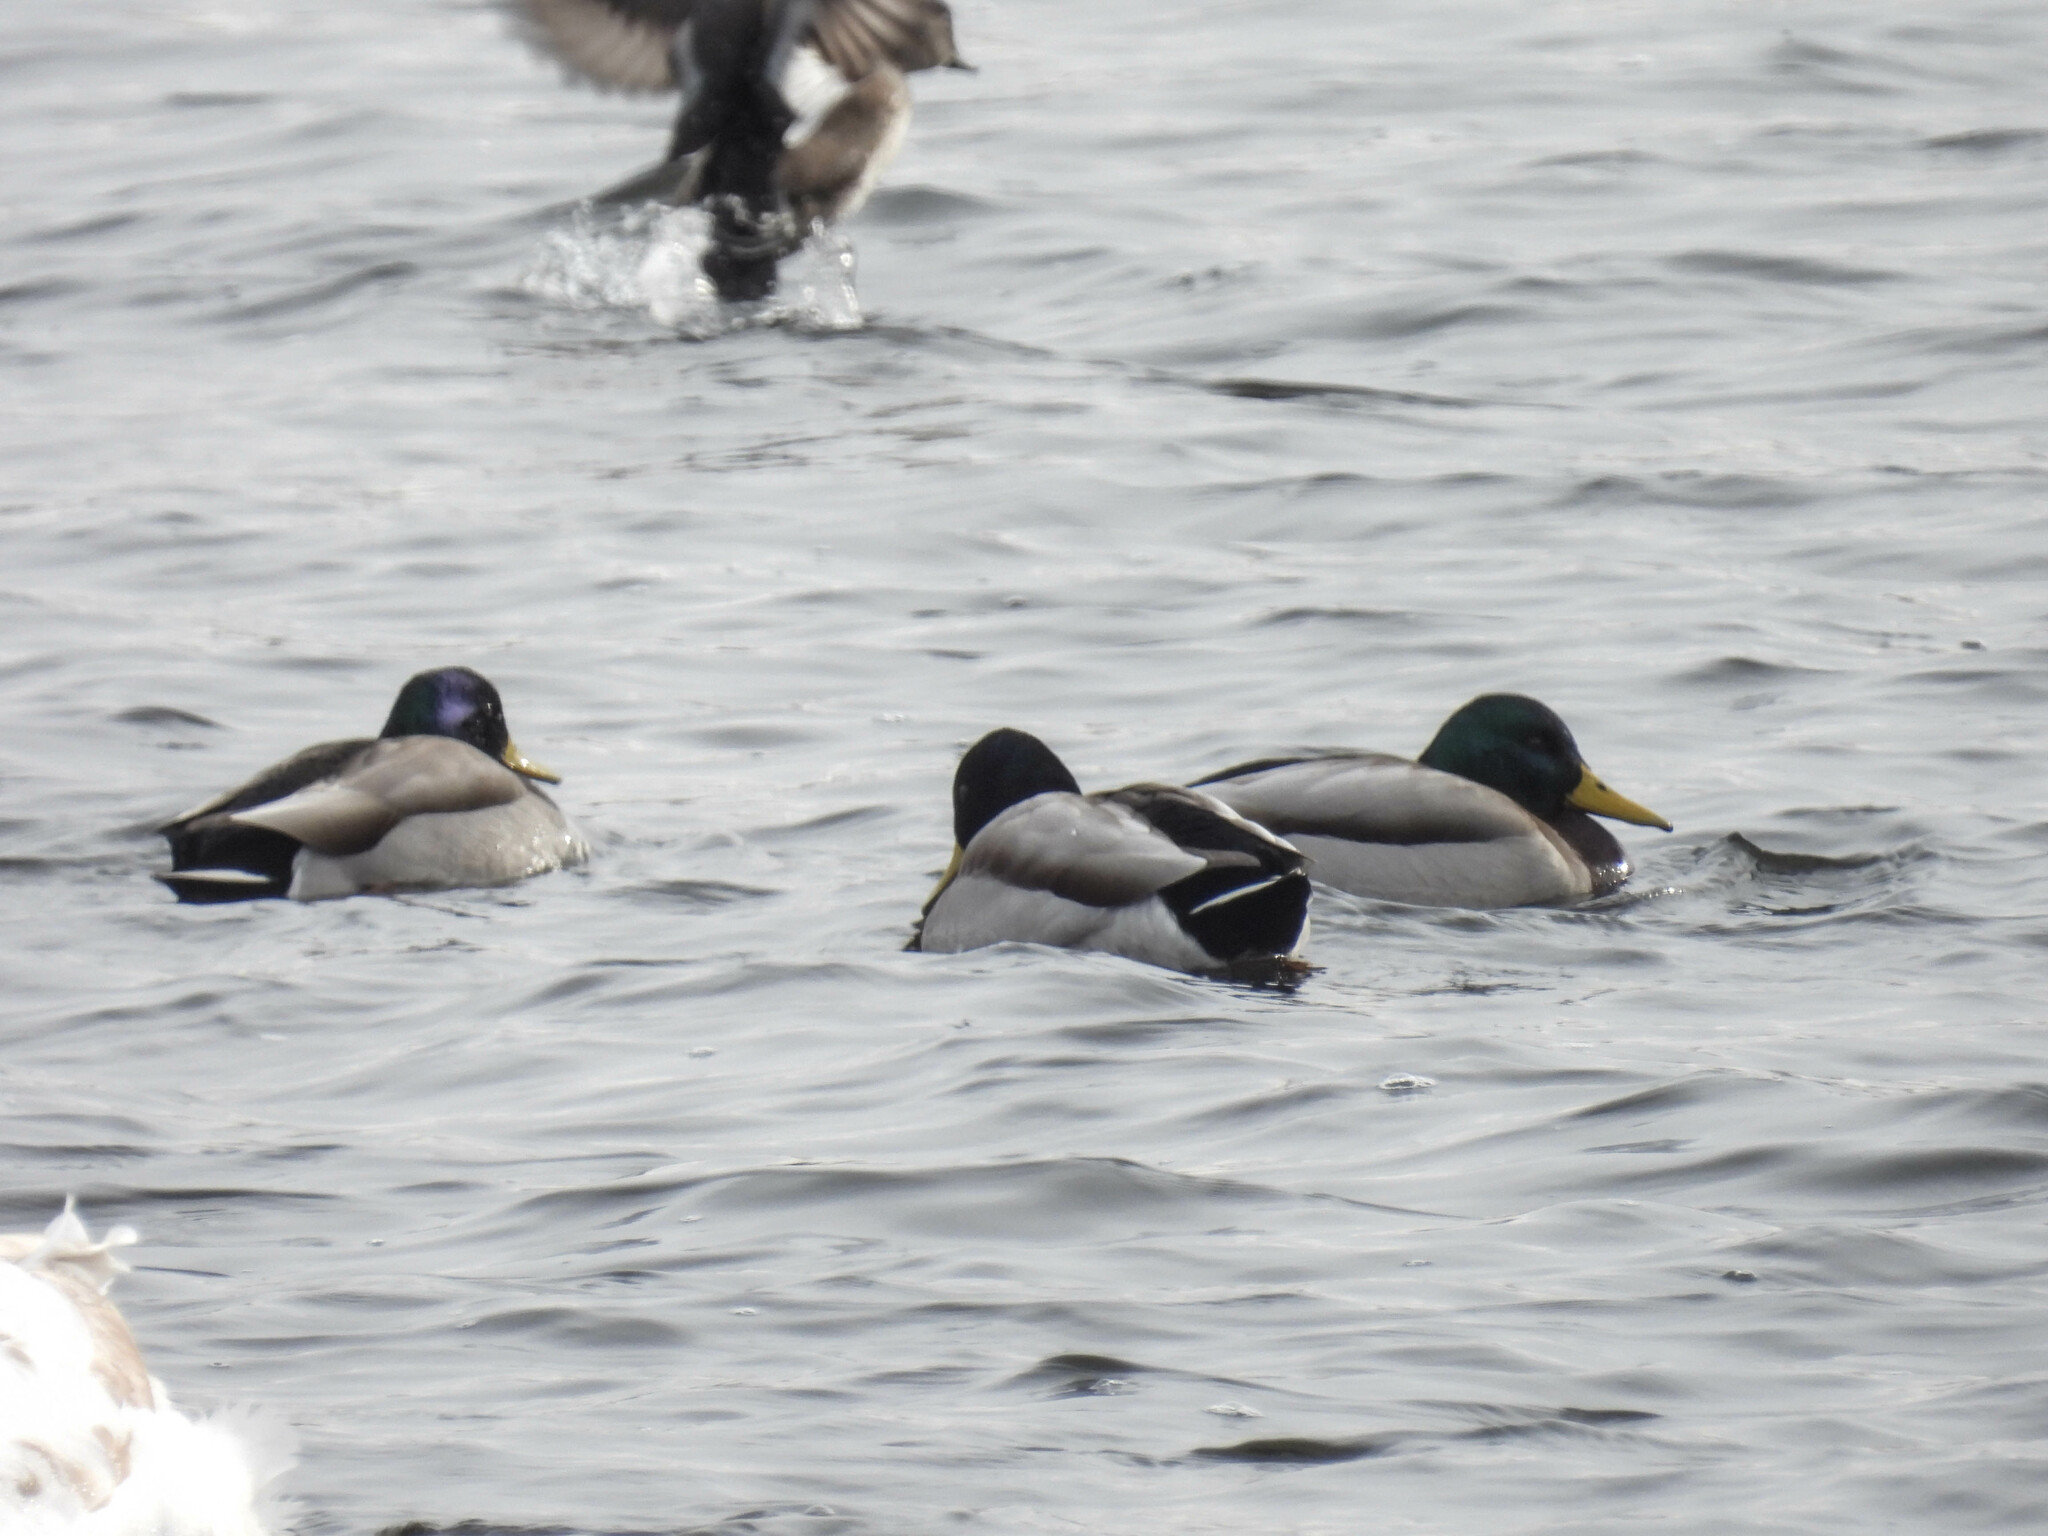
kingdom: Animalia
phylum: Chordata
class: Aves
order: Anseriformes
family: Anatidae
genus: Anas
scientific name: Anas platyrhynchos
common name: Mallard
